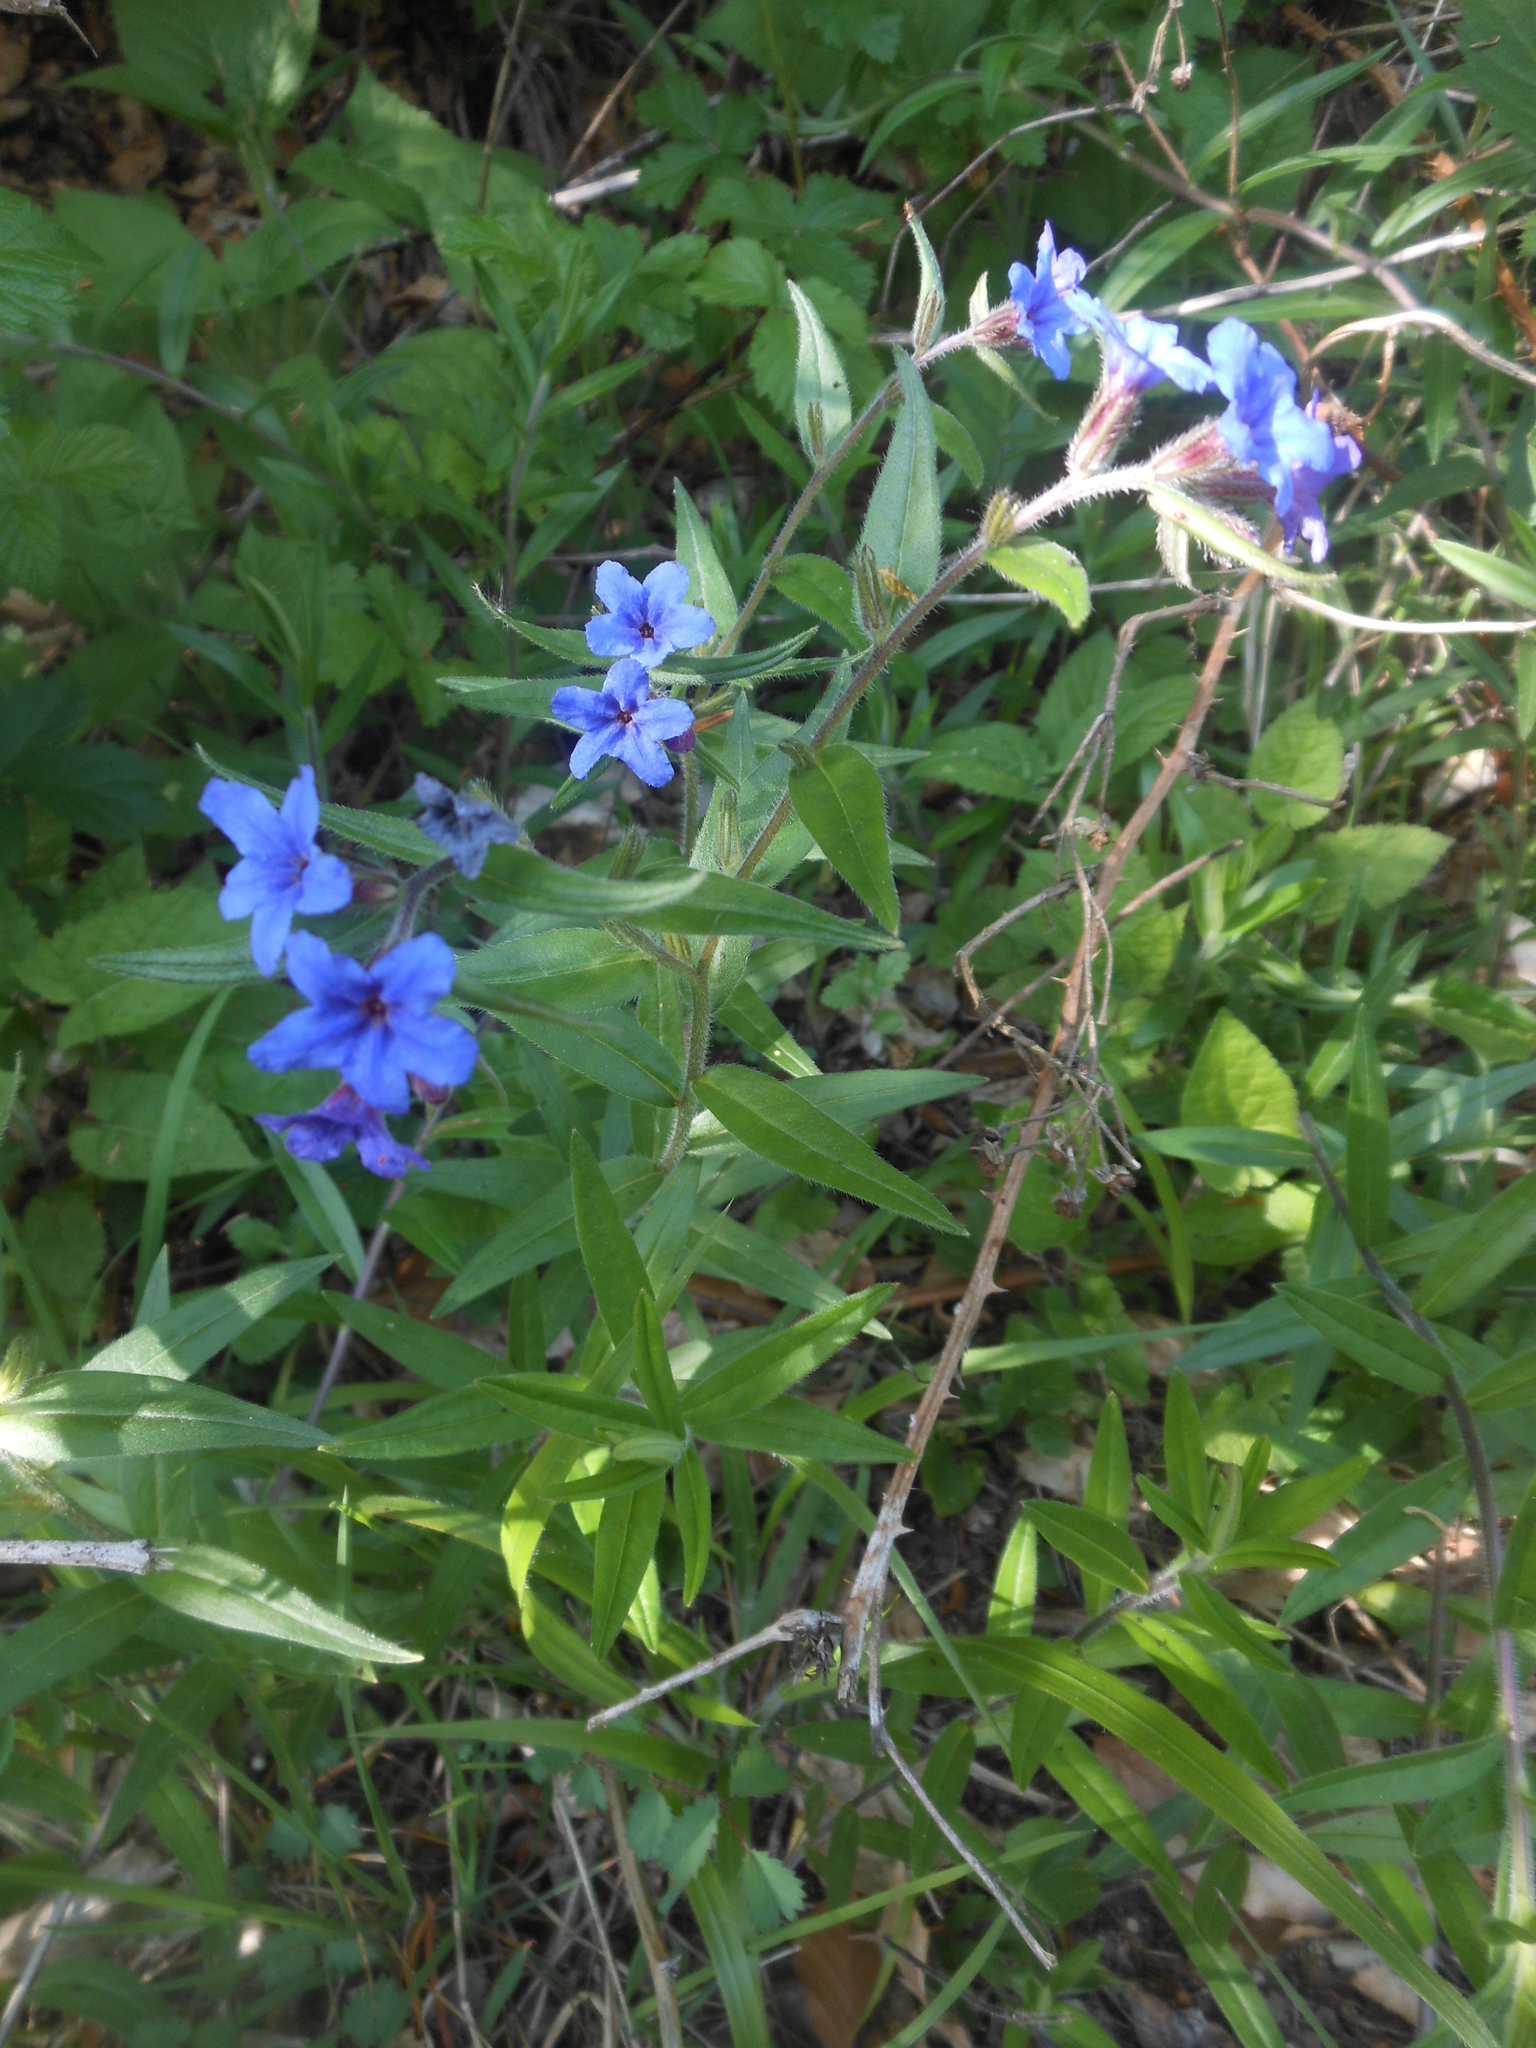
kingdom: Plantae
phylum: Tracheophyta
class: Magnoliopsida
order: Boraginales
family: Boraginaceae
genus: Aegonychon
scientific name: Aegonychon purpurocaeruleum
